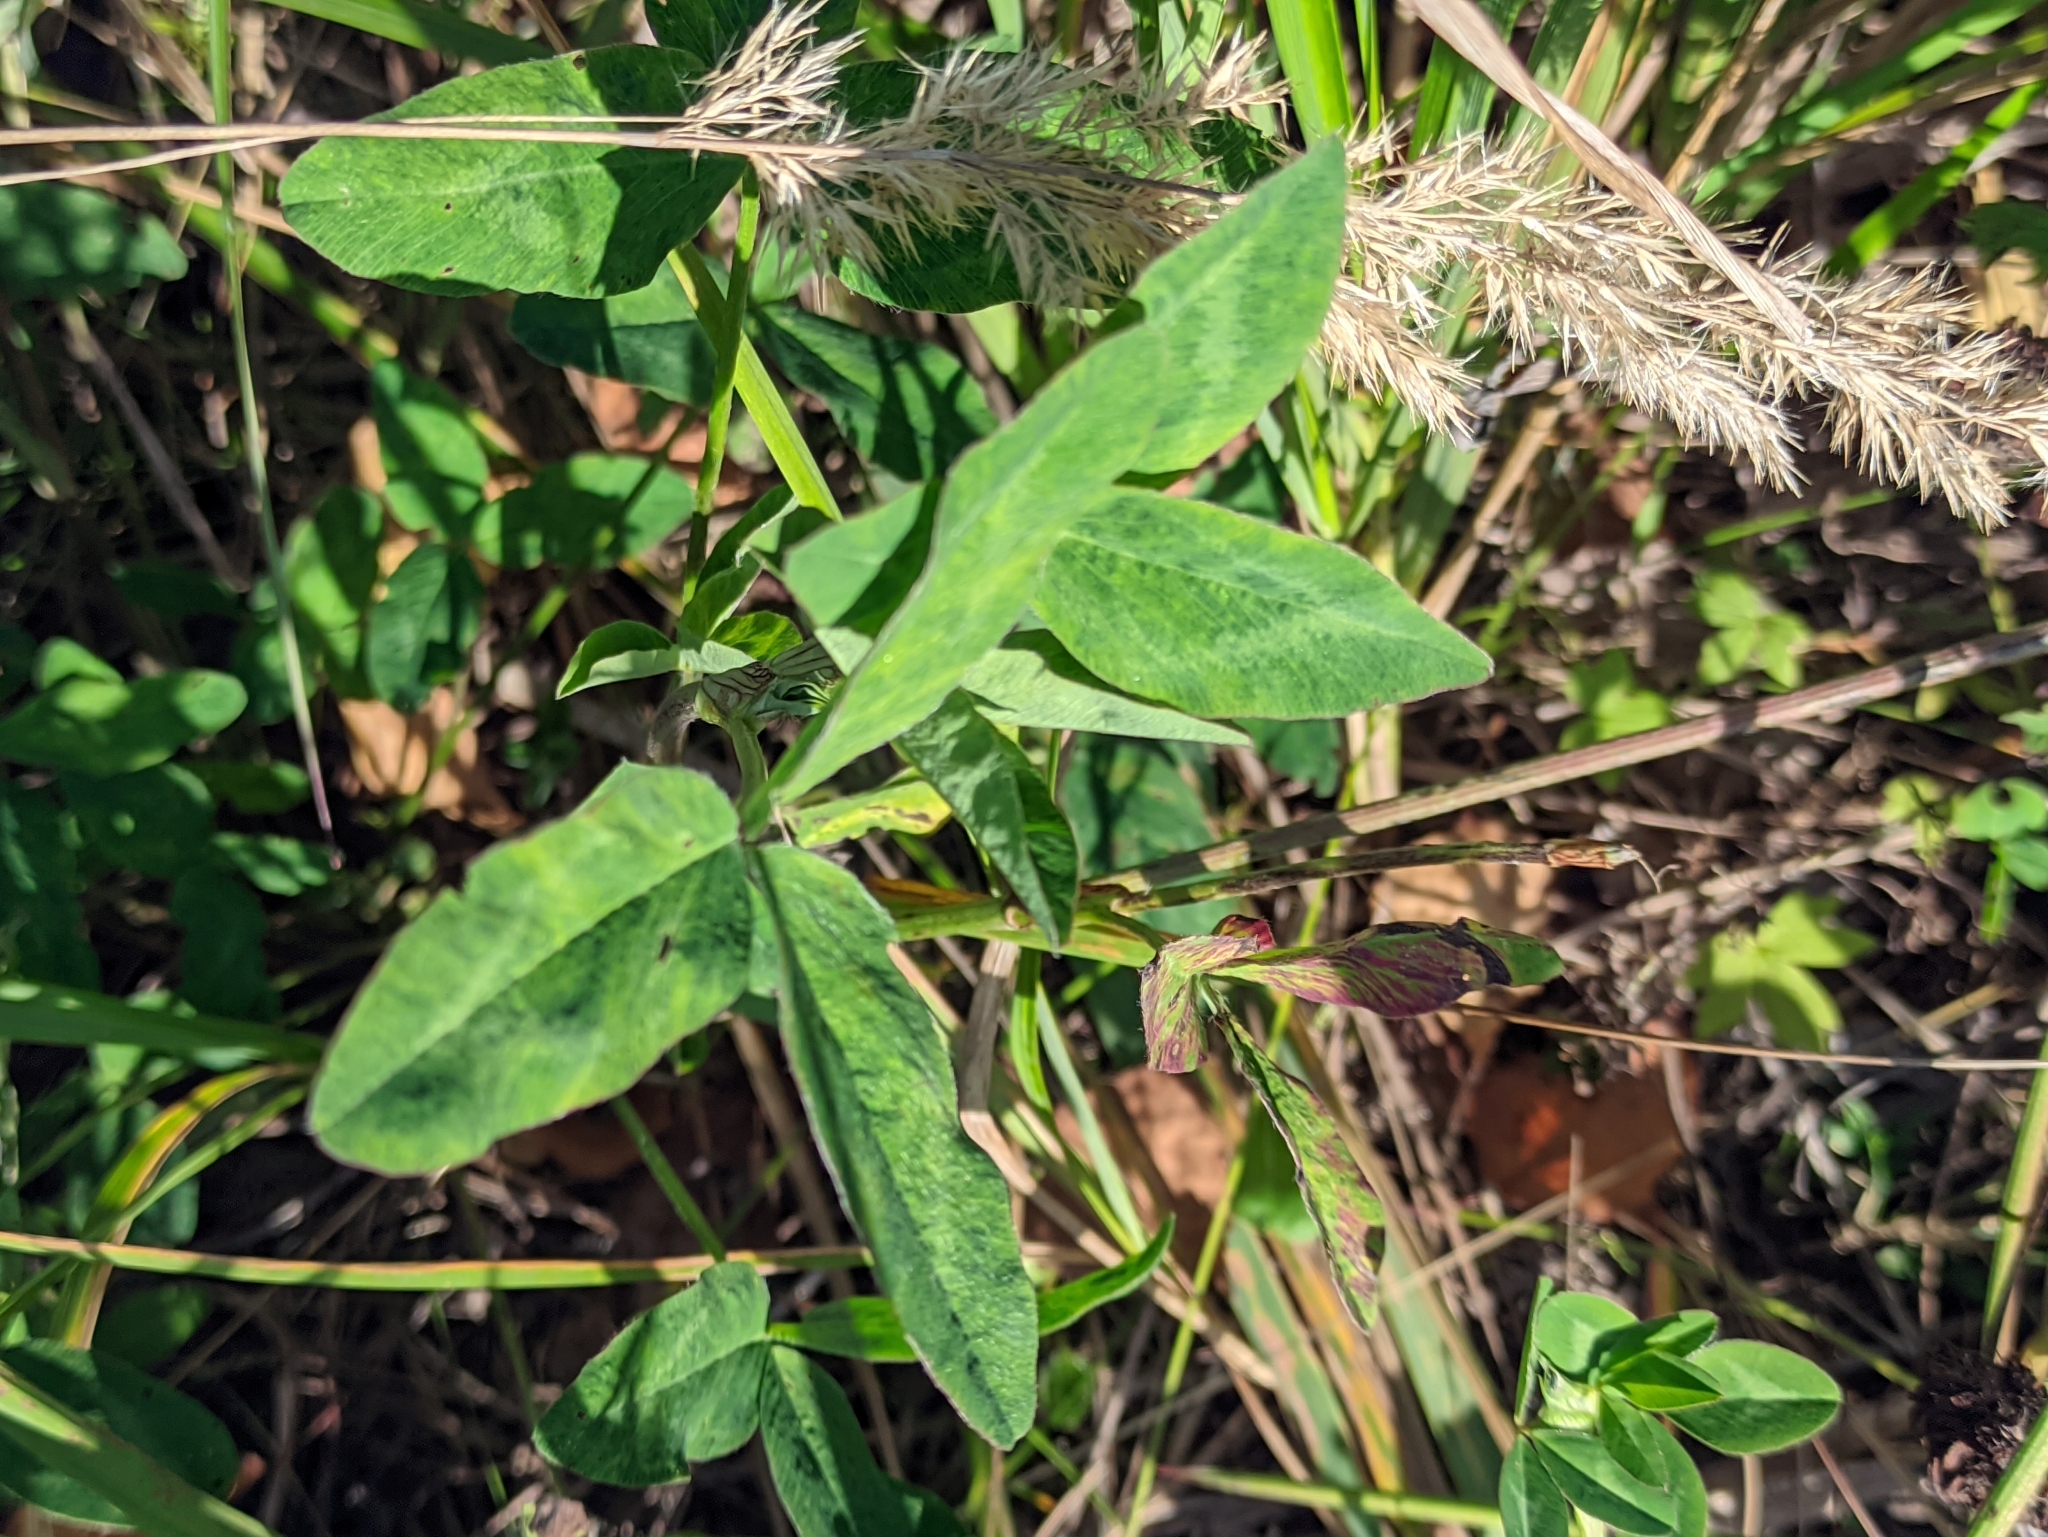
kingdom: Plantae
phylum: Tracheophyta
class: Magnoliopsida
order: Fabales
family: Fabaceae
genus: Trifolium
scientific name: Trifolium pratense
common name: Red clover
